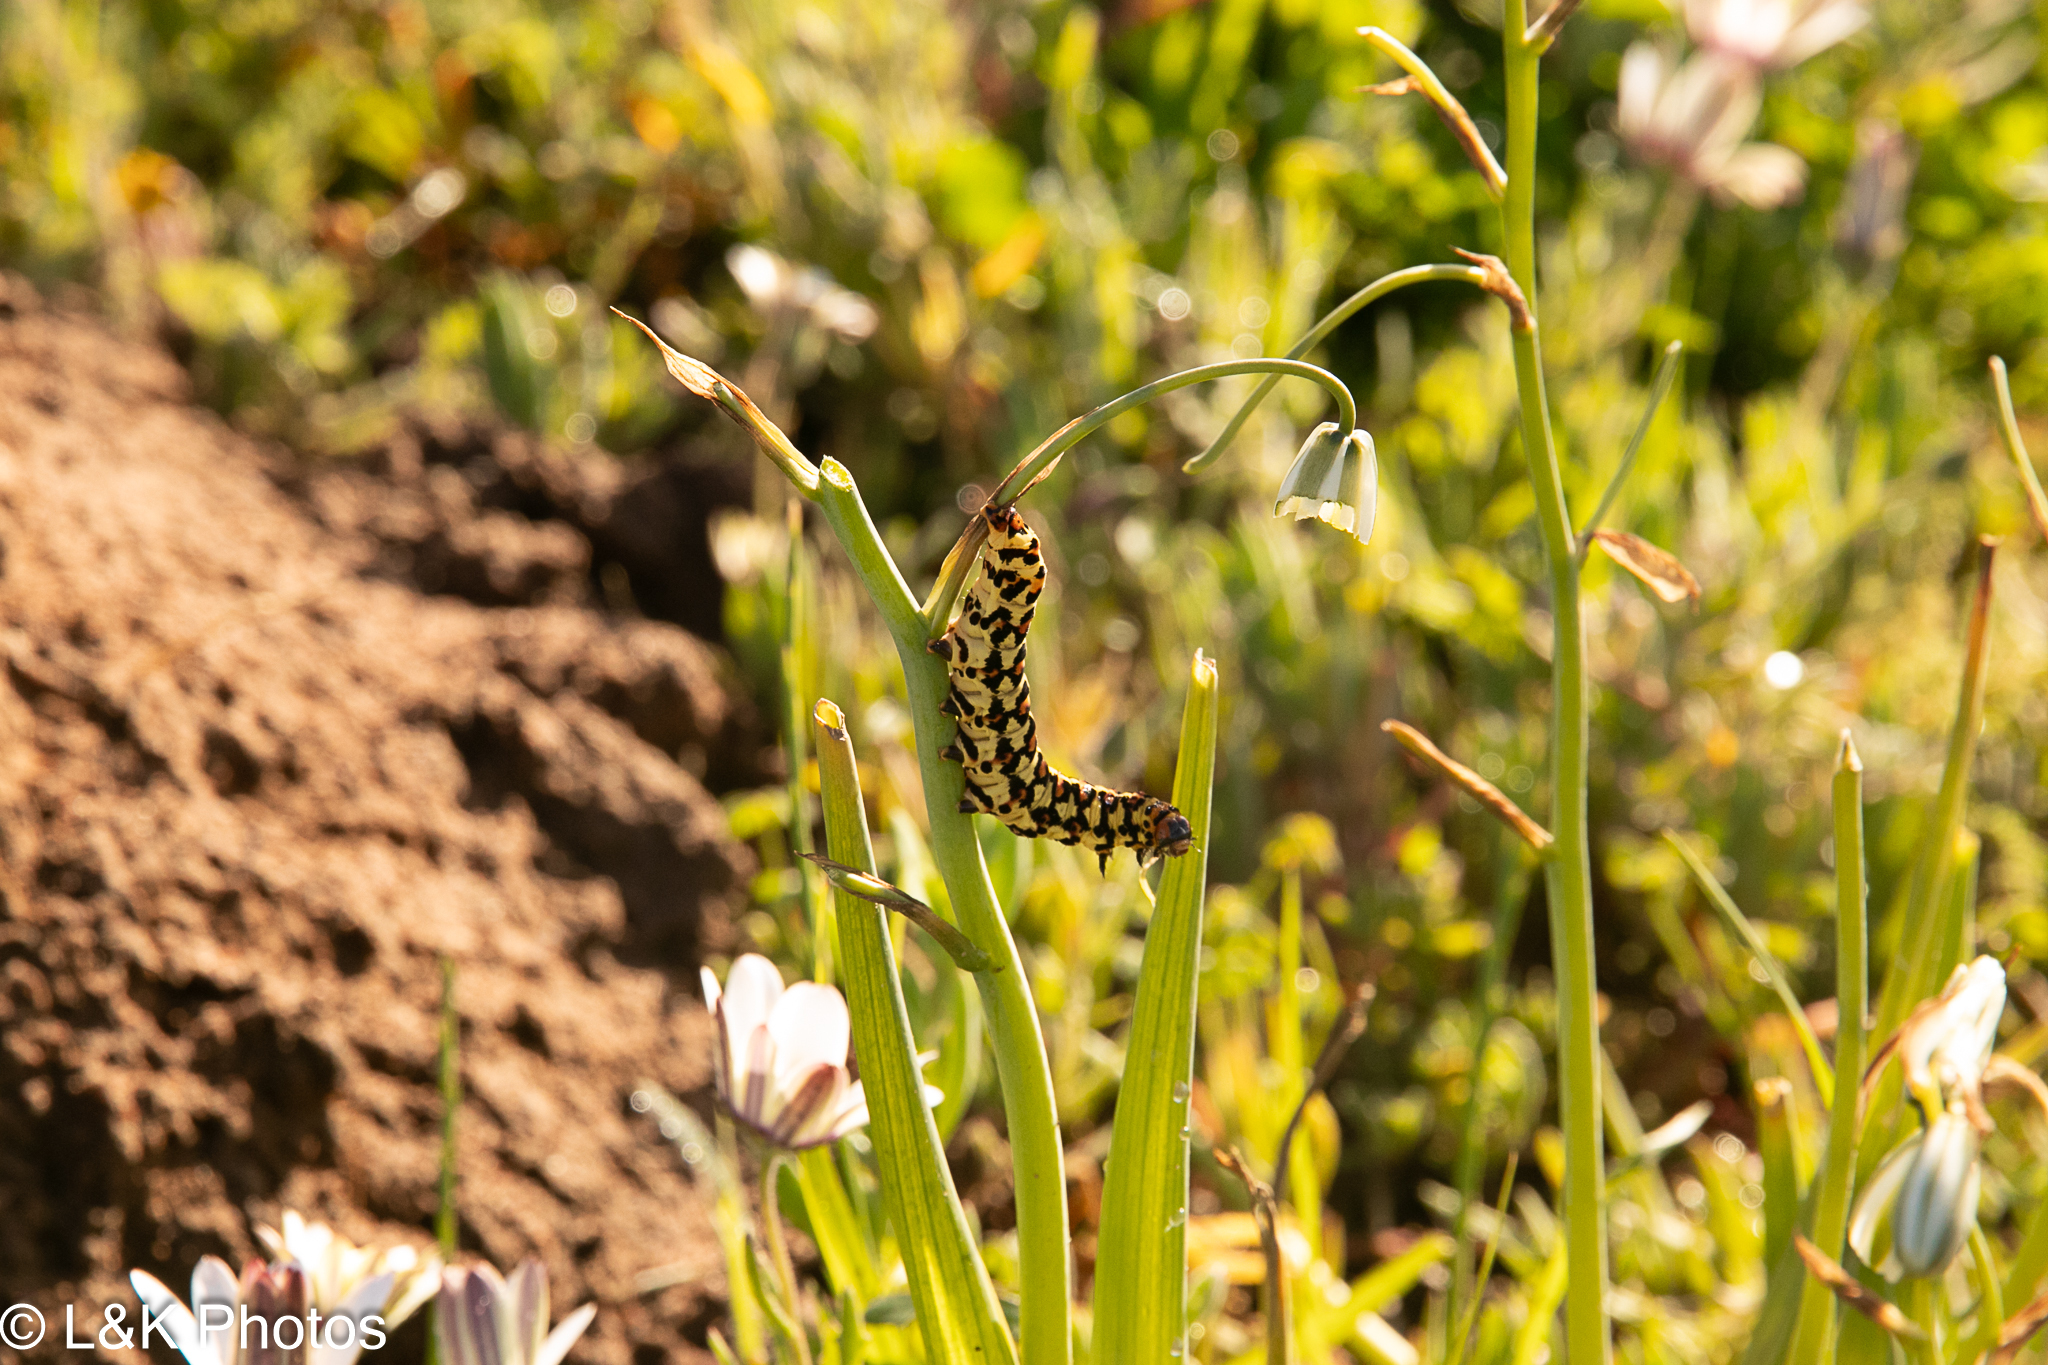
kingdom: Animalia
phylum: Arthropoda
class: Insecta
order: Lepidoptera
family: Noctuidae
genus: Diaphone
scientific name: Diaphone eumela
